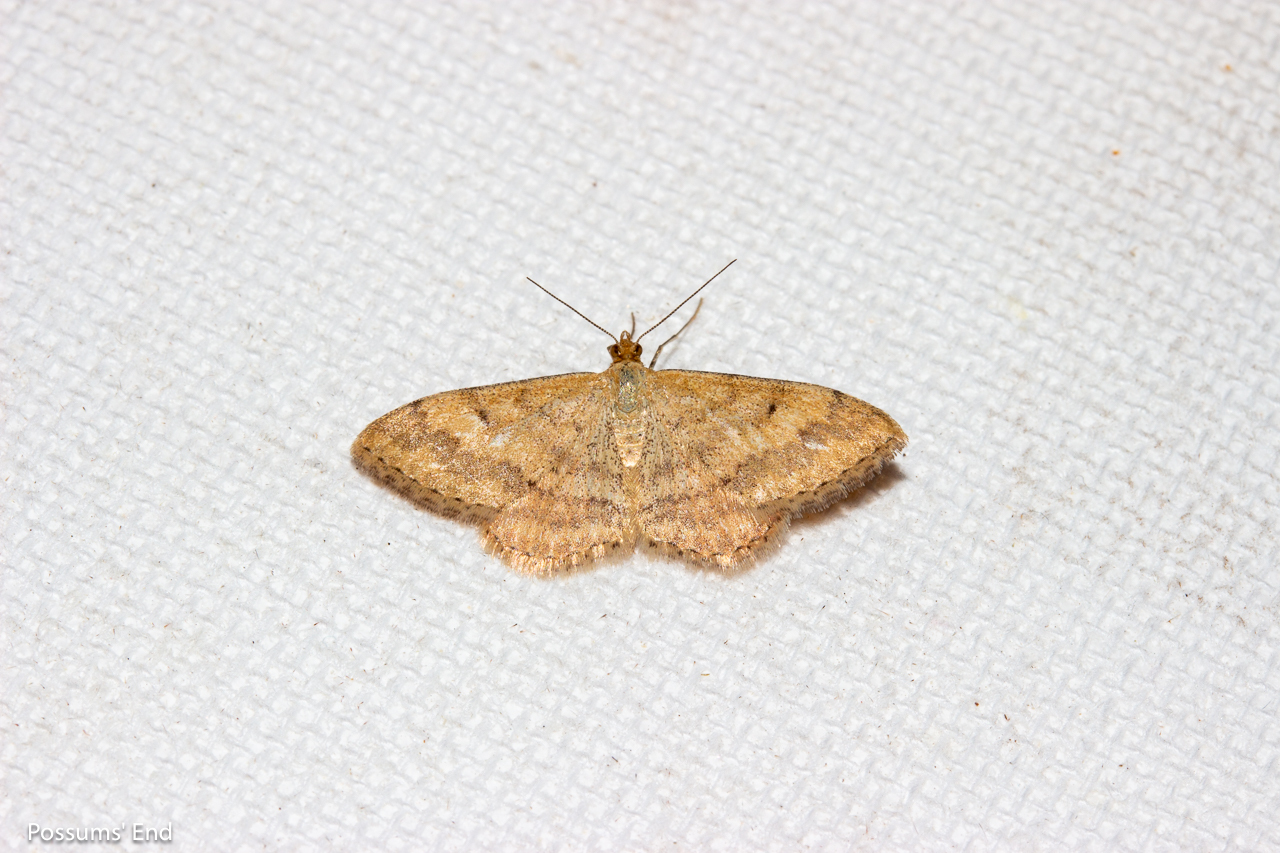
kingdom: Animalia
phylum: Arthropoda
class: Insecta
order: Lepidoptera
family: Geometridae
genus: Scopula
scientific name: Scopula rubraria
